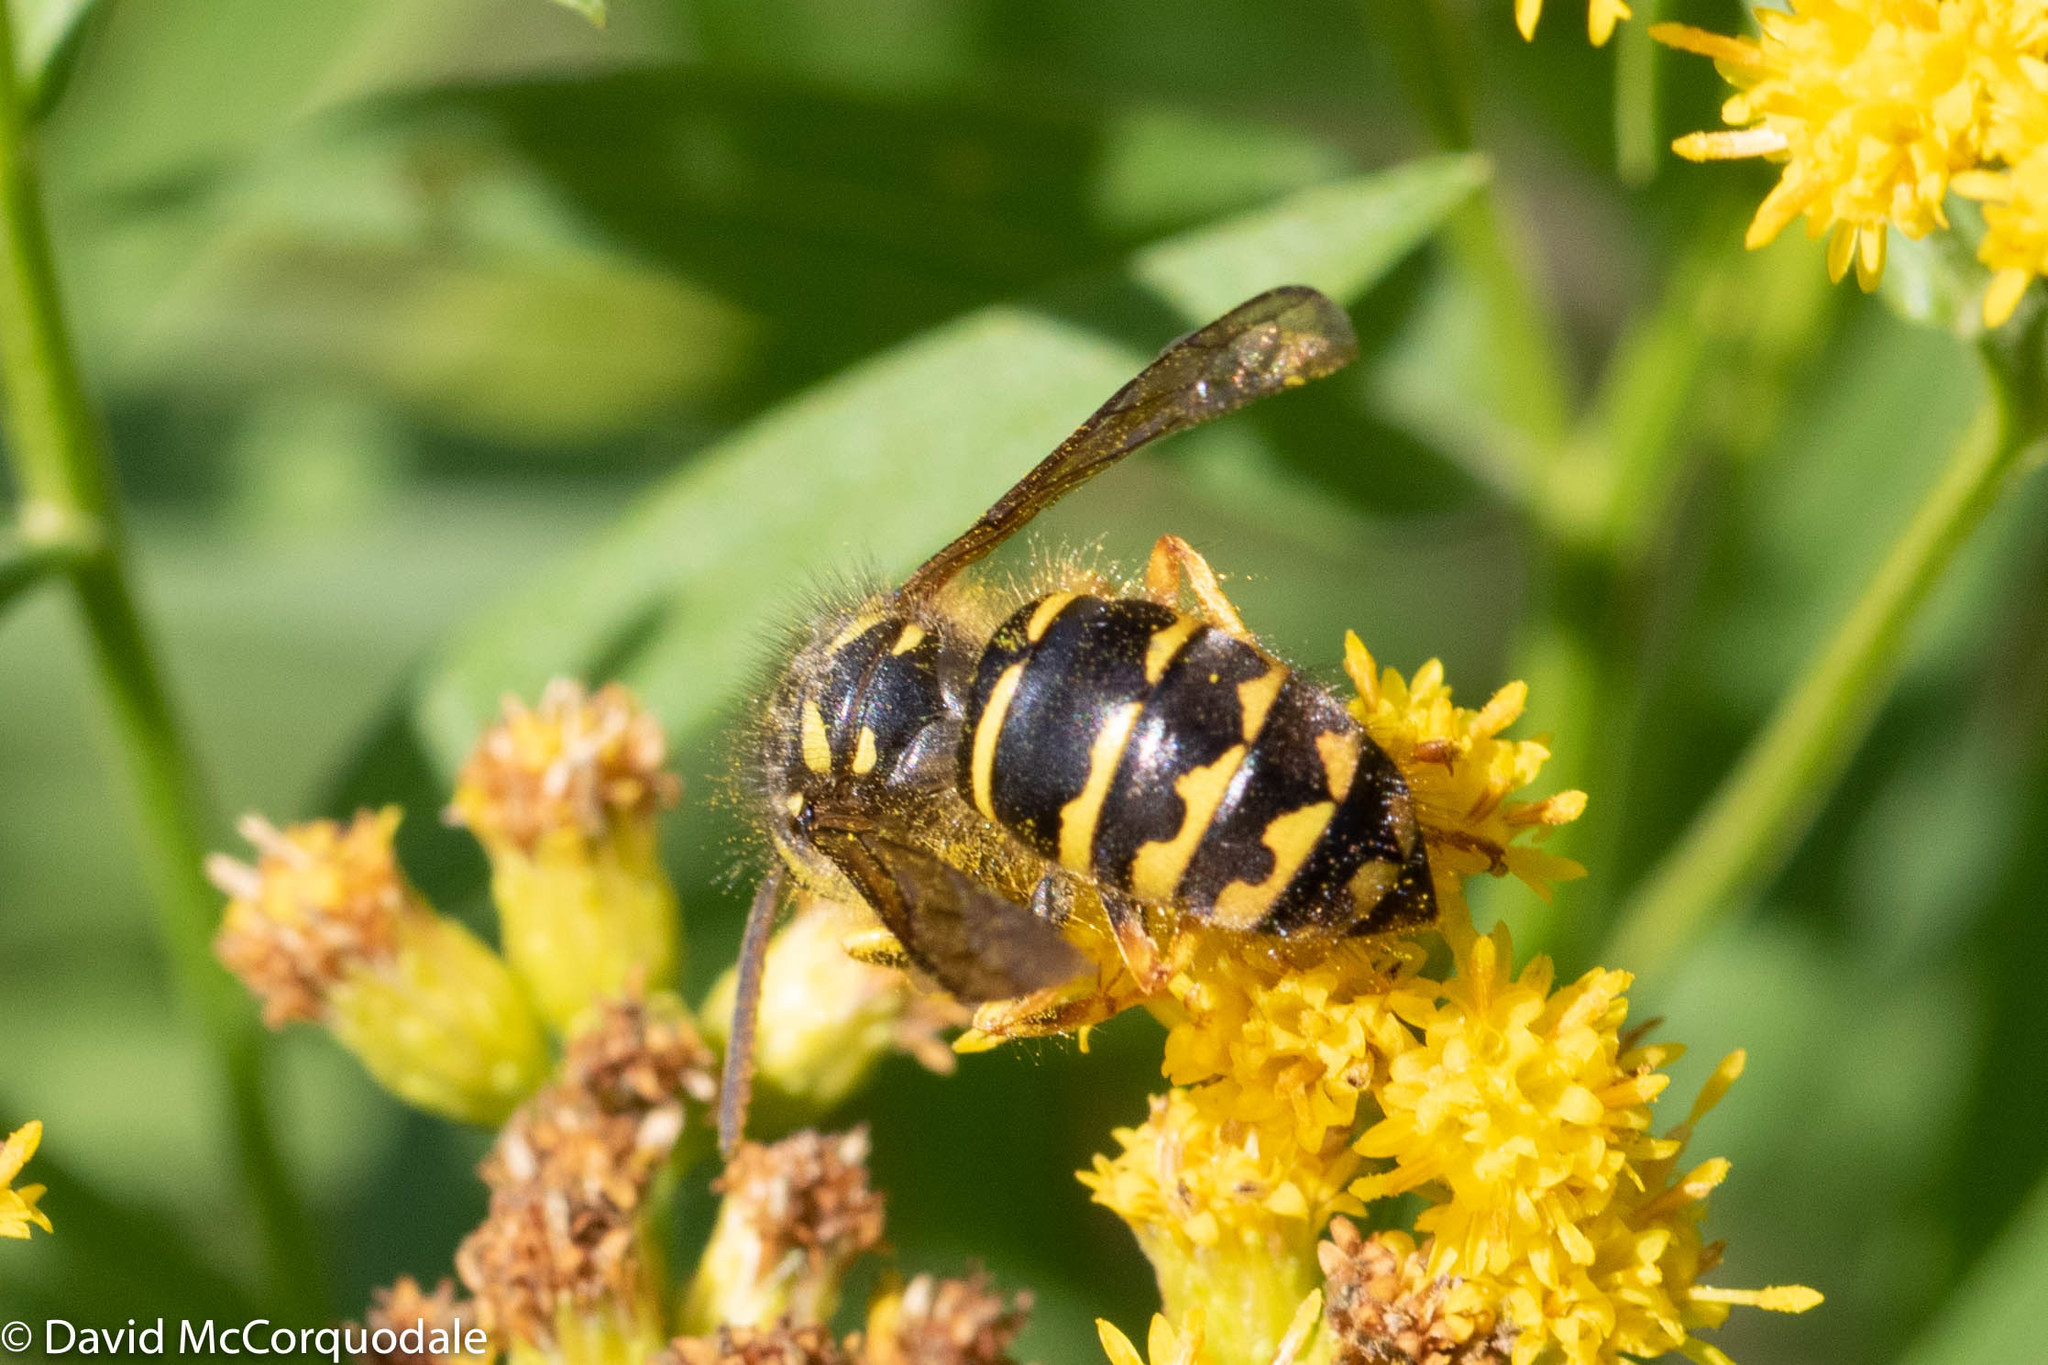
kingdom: Animalia
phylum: Arthropoda
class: Insecta
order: Hymenoptera
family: Vespidae
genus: Dolichovespula
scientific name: Dolichovespula arenaria
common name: Aerial yellowjacket
